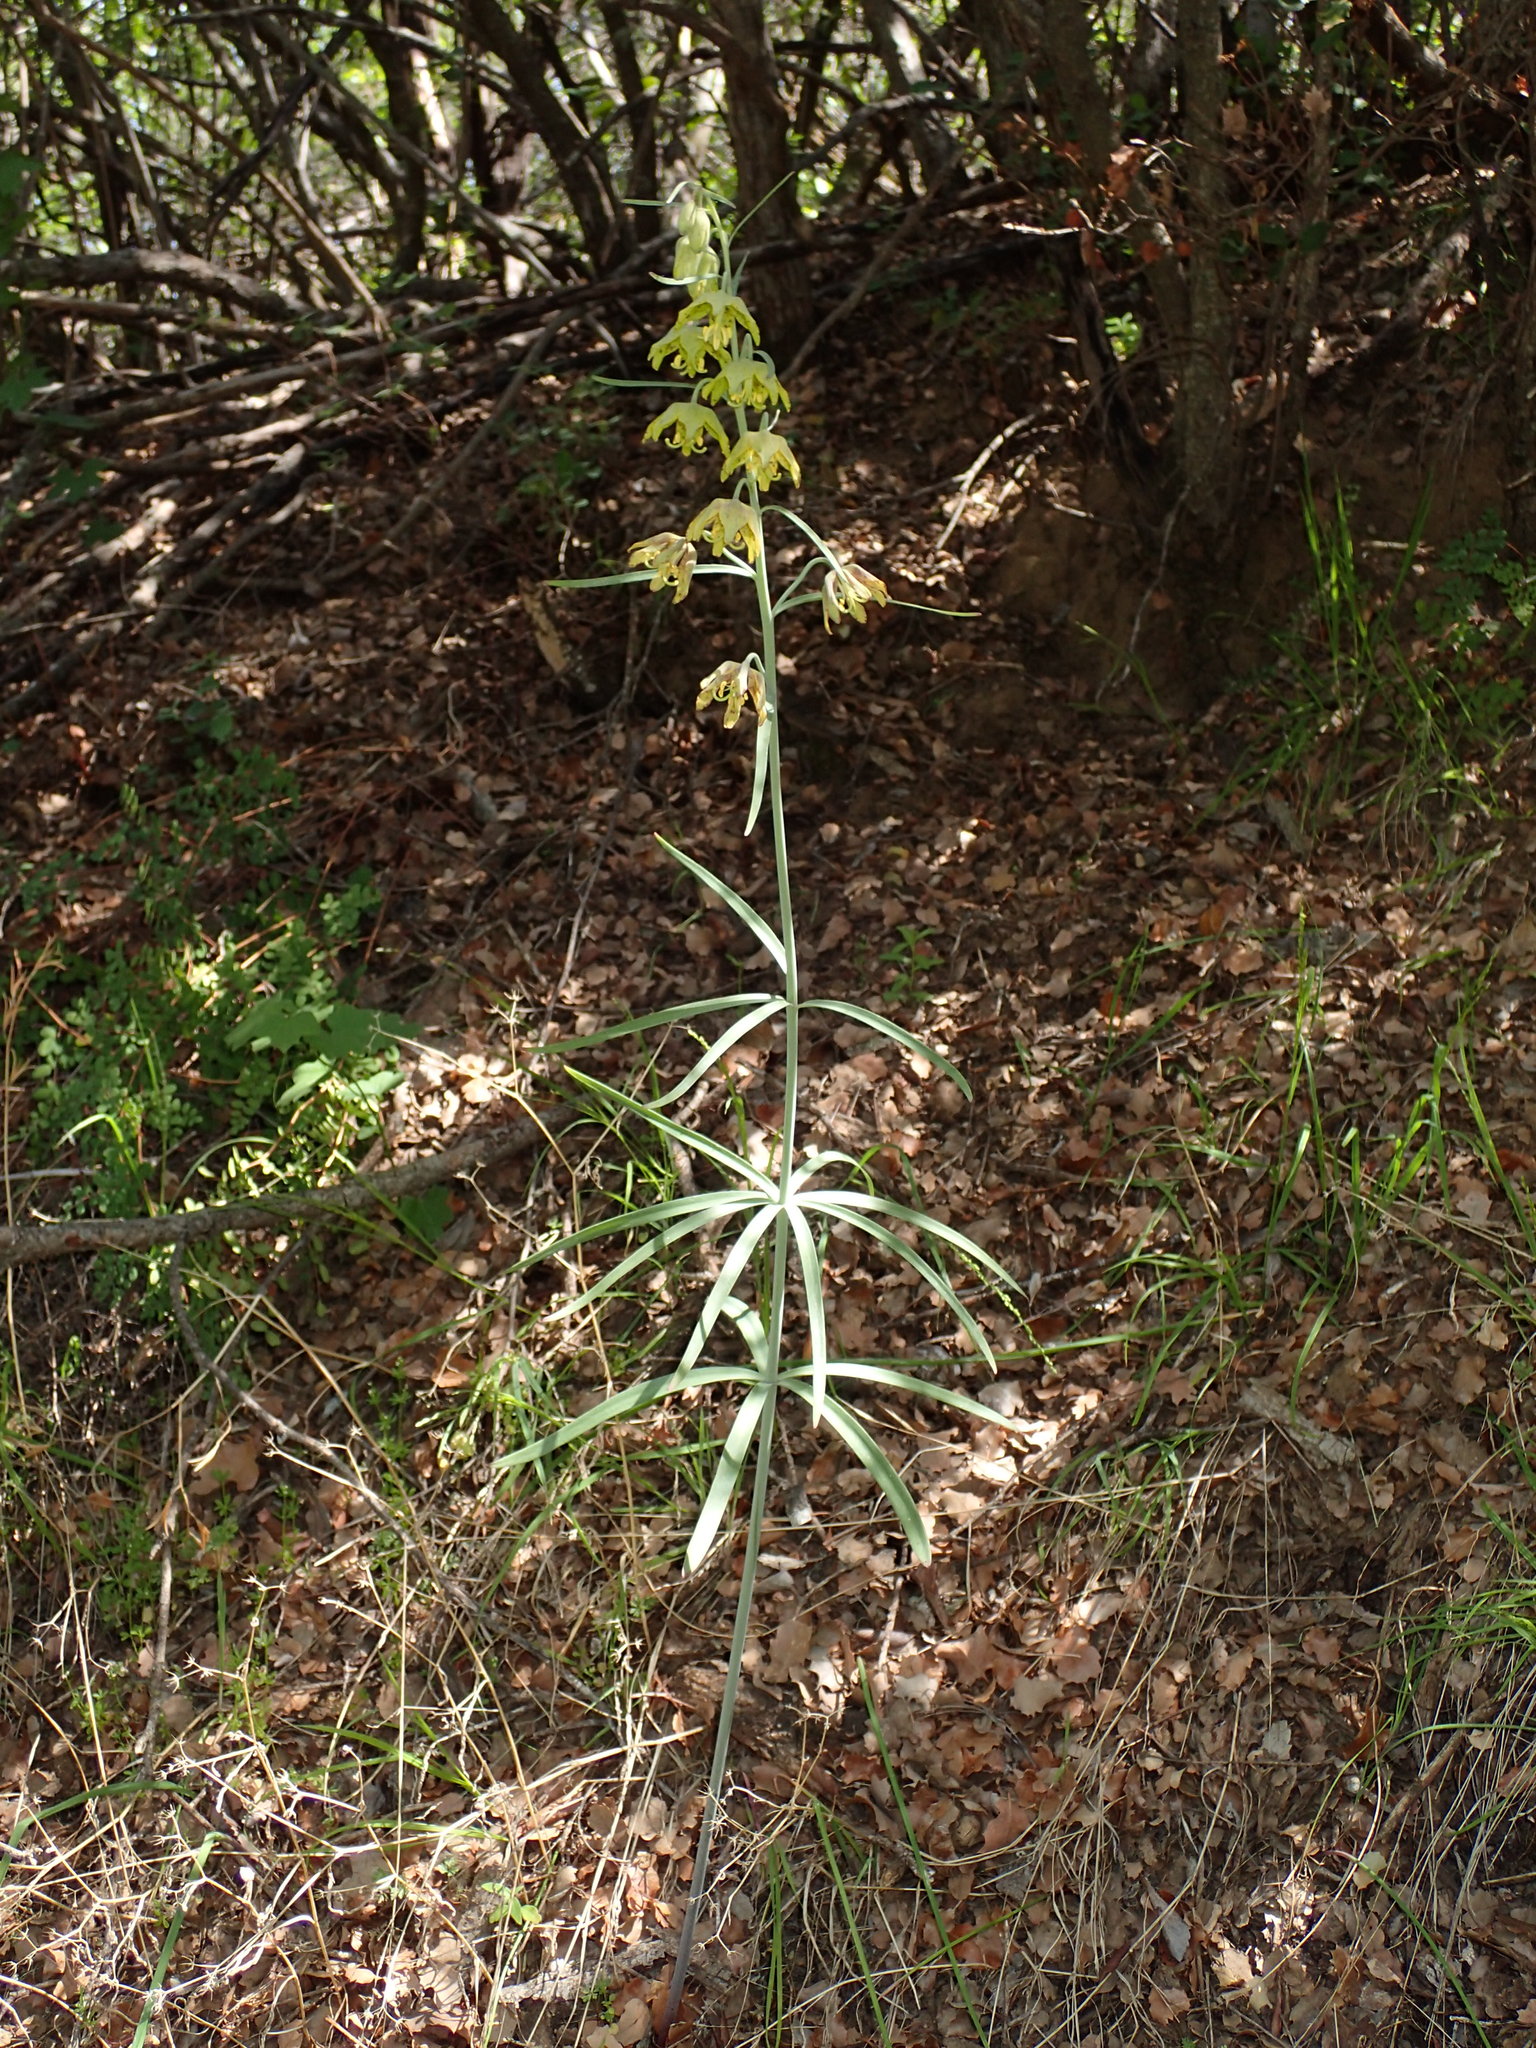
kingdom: Plantae
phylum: Tracheophyta
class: Liliopsida
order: Liliales
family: Liliaceae
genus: Fritillaria
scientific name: Fritillaria ojaiensis
